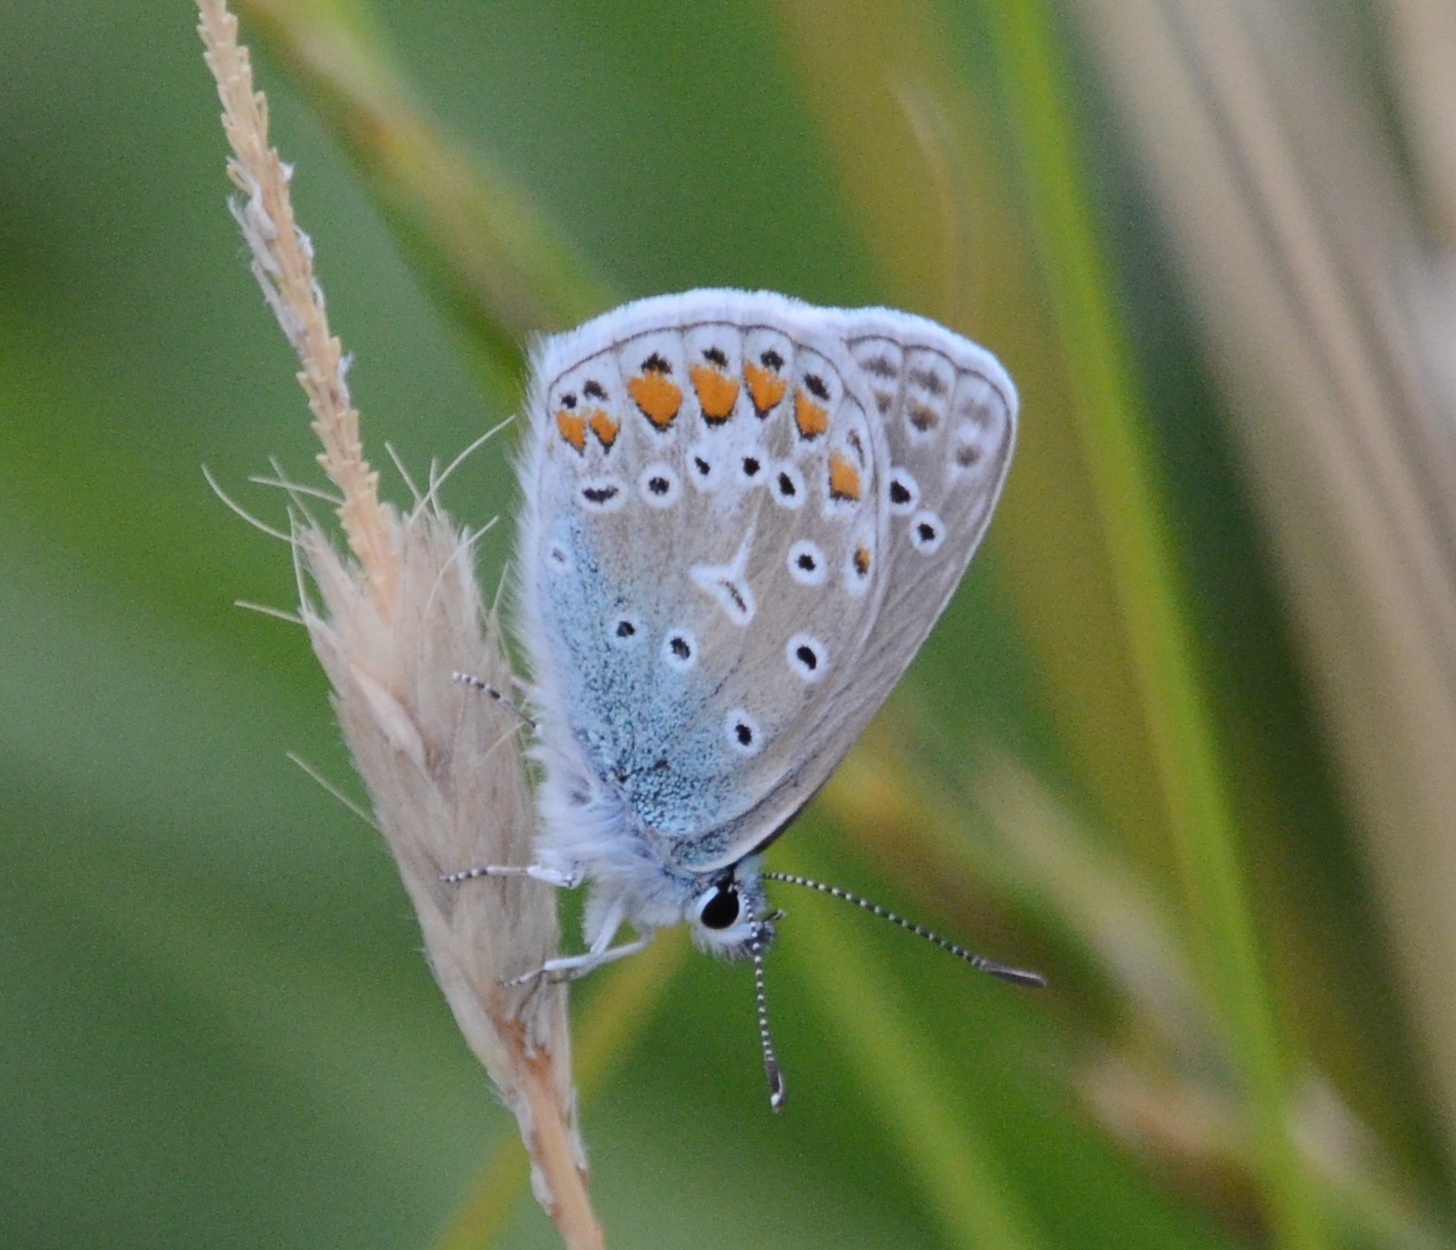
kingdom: Animalia
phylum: Arthropoda
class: Insecta
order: Lepidoptera
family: Lycaenidae
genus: Polyommatus
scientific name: Polyommatus icarus
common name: Common blue
